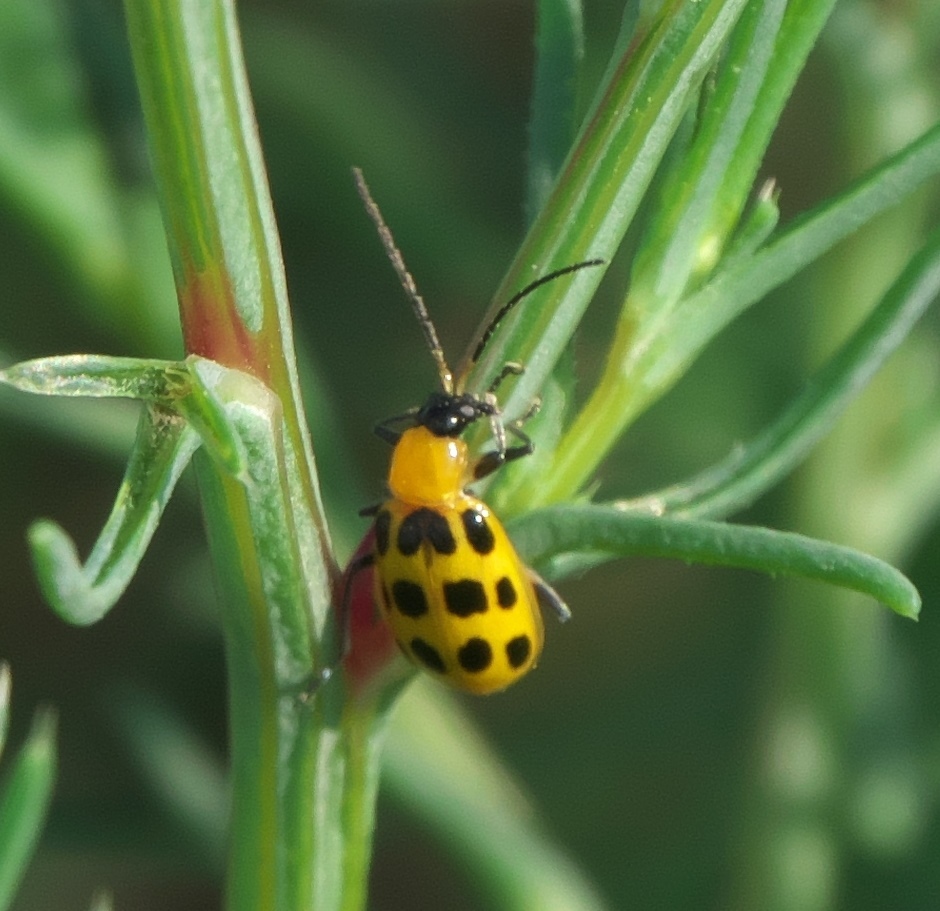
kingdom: Animalia
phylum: Arthropoda
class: Insecta
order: Coleoptera
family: Chrysomelidae
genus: Diabrotica
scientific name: Diabrotica undecimpunctata
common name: Spotted cucumber beetle
